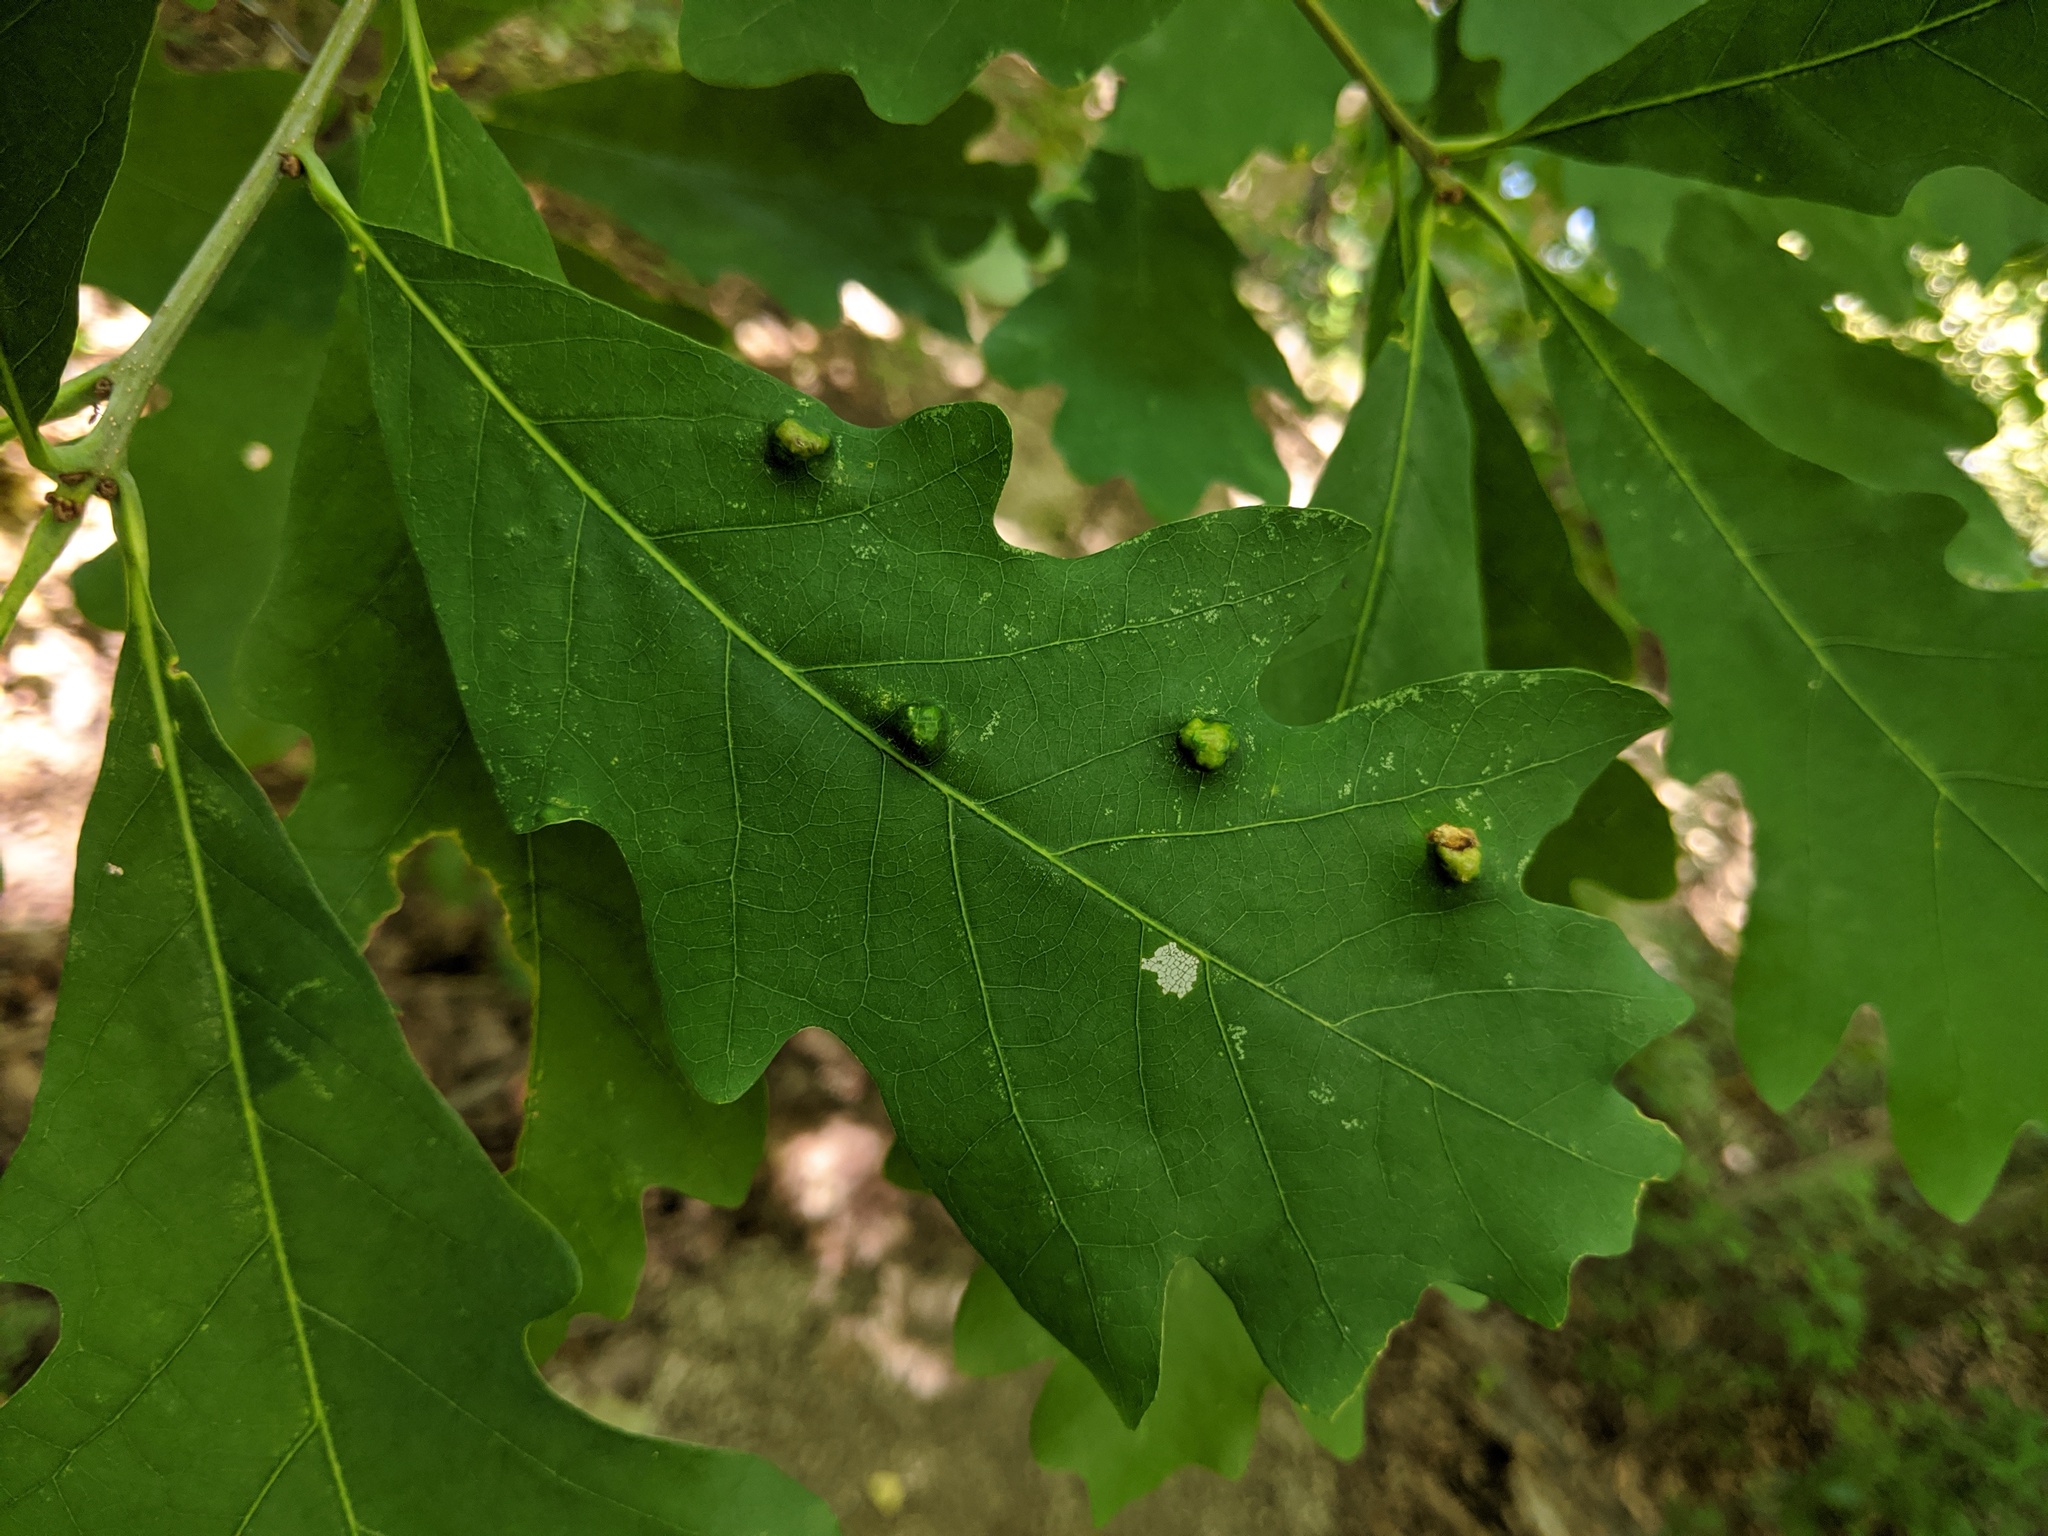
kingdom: Animalia
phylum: Arthropoda
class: Arachnida
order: Trombidiformes
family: Eriophyidae
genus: Aceria
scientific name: Aceria
